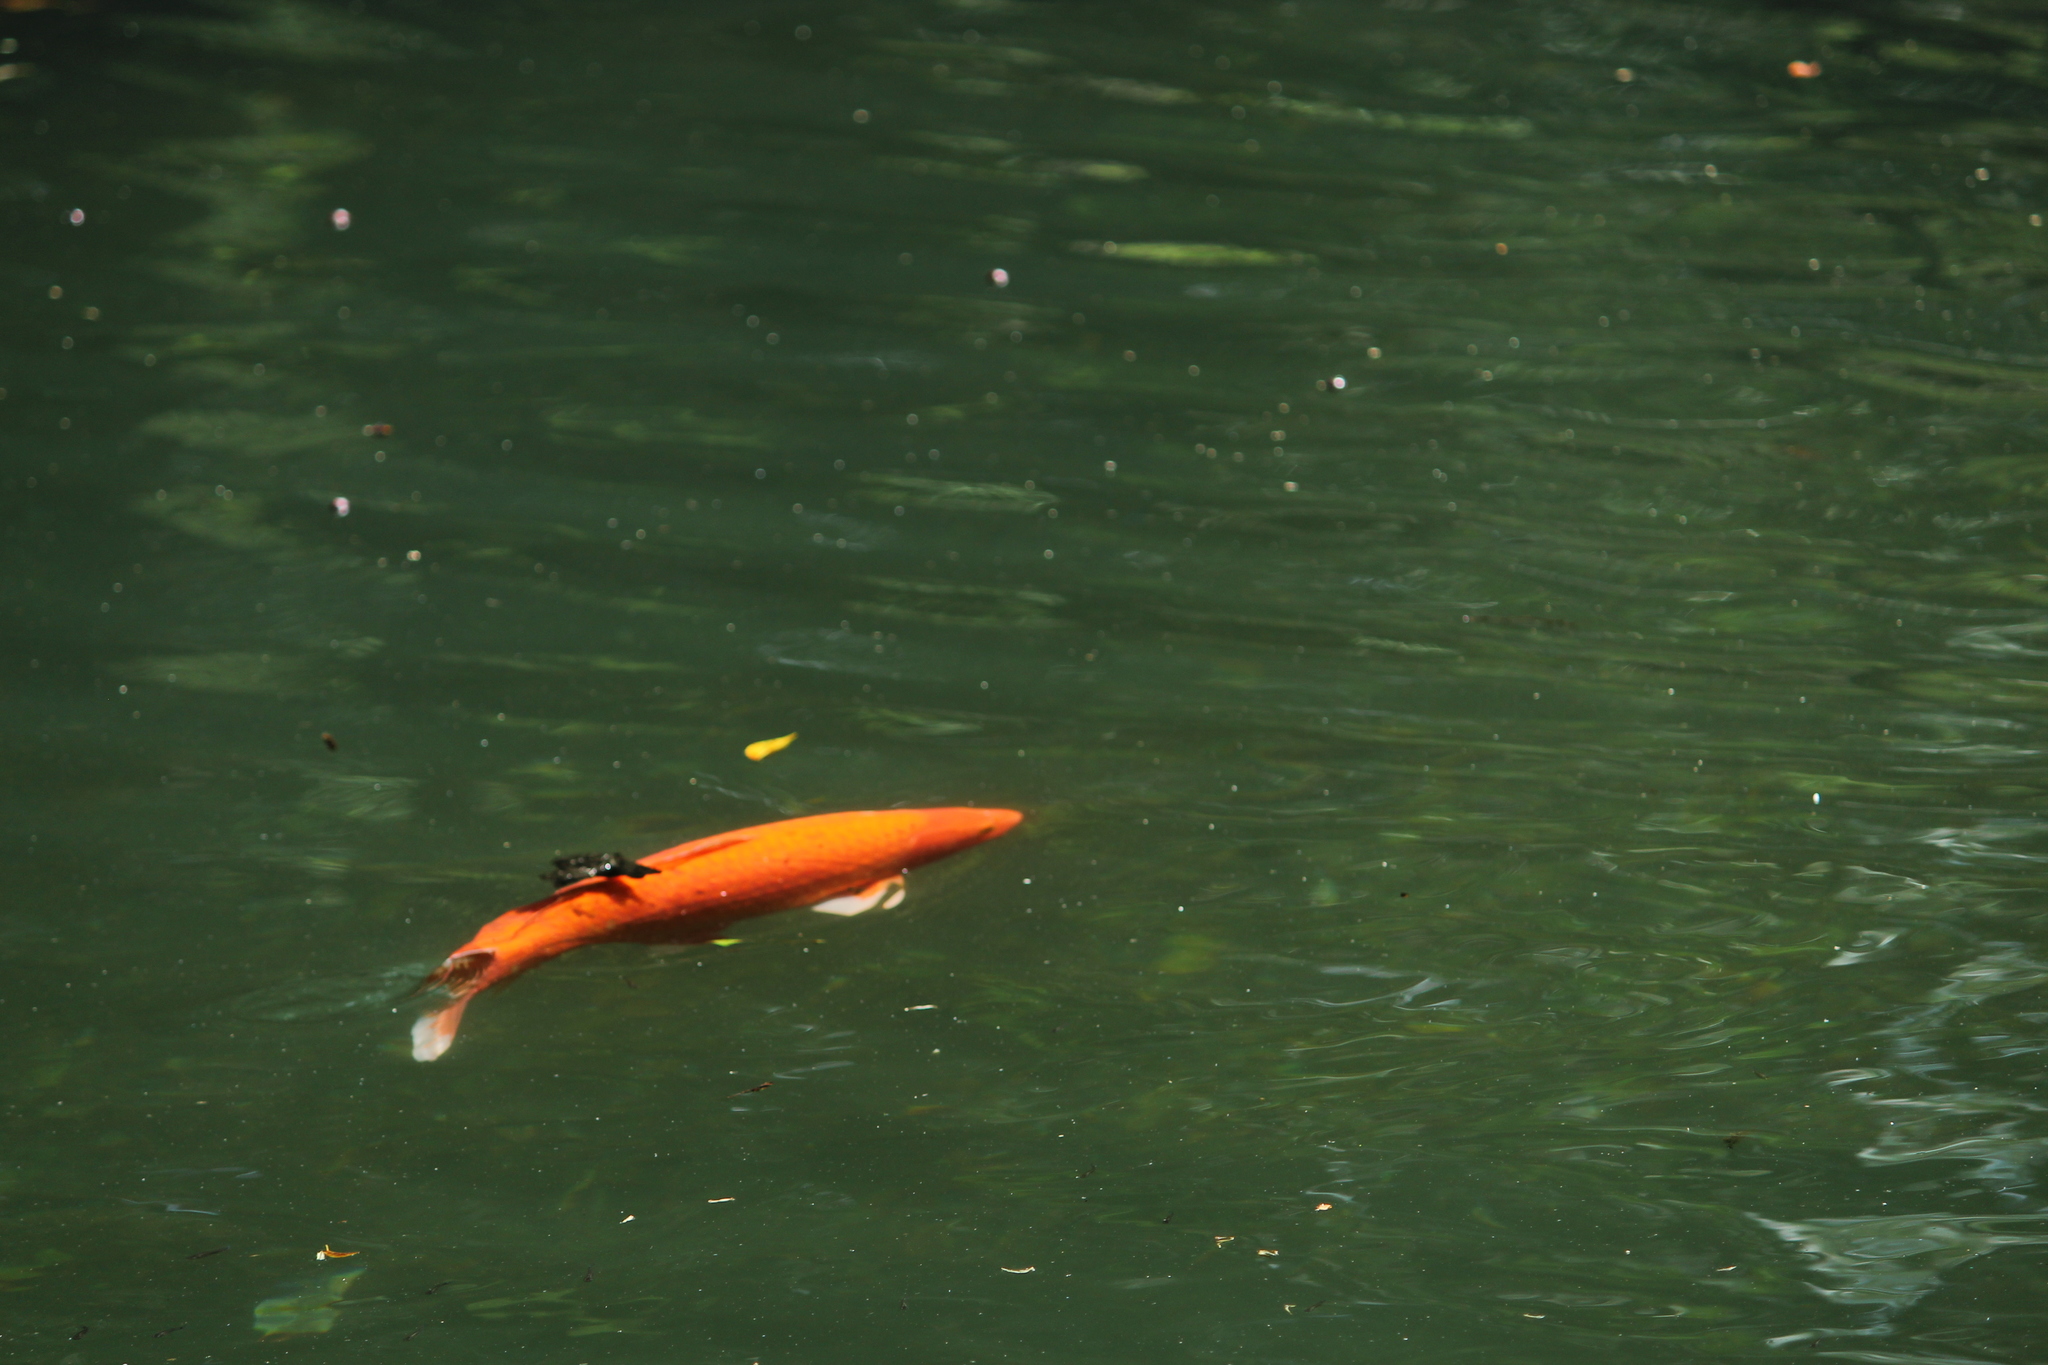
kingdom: Animalia
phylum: Chordata
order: Cypriniformes
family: Cyprinidae
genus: Cyprinus
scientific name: Cyprinus rubrofuscus
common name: Koi
